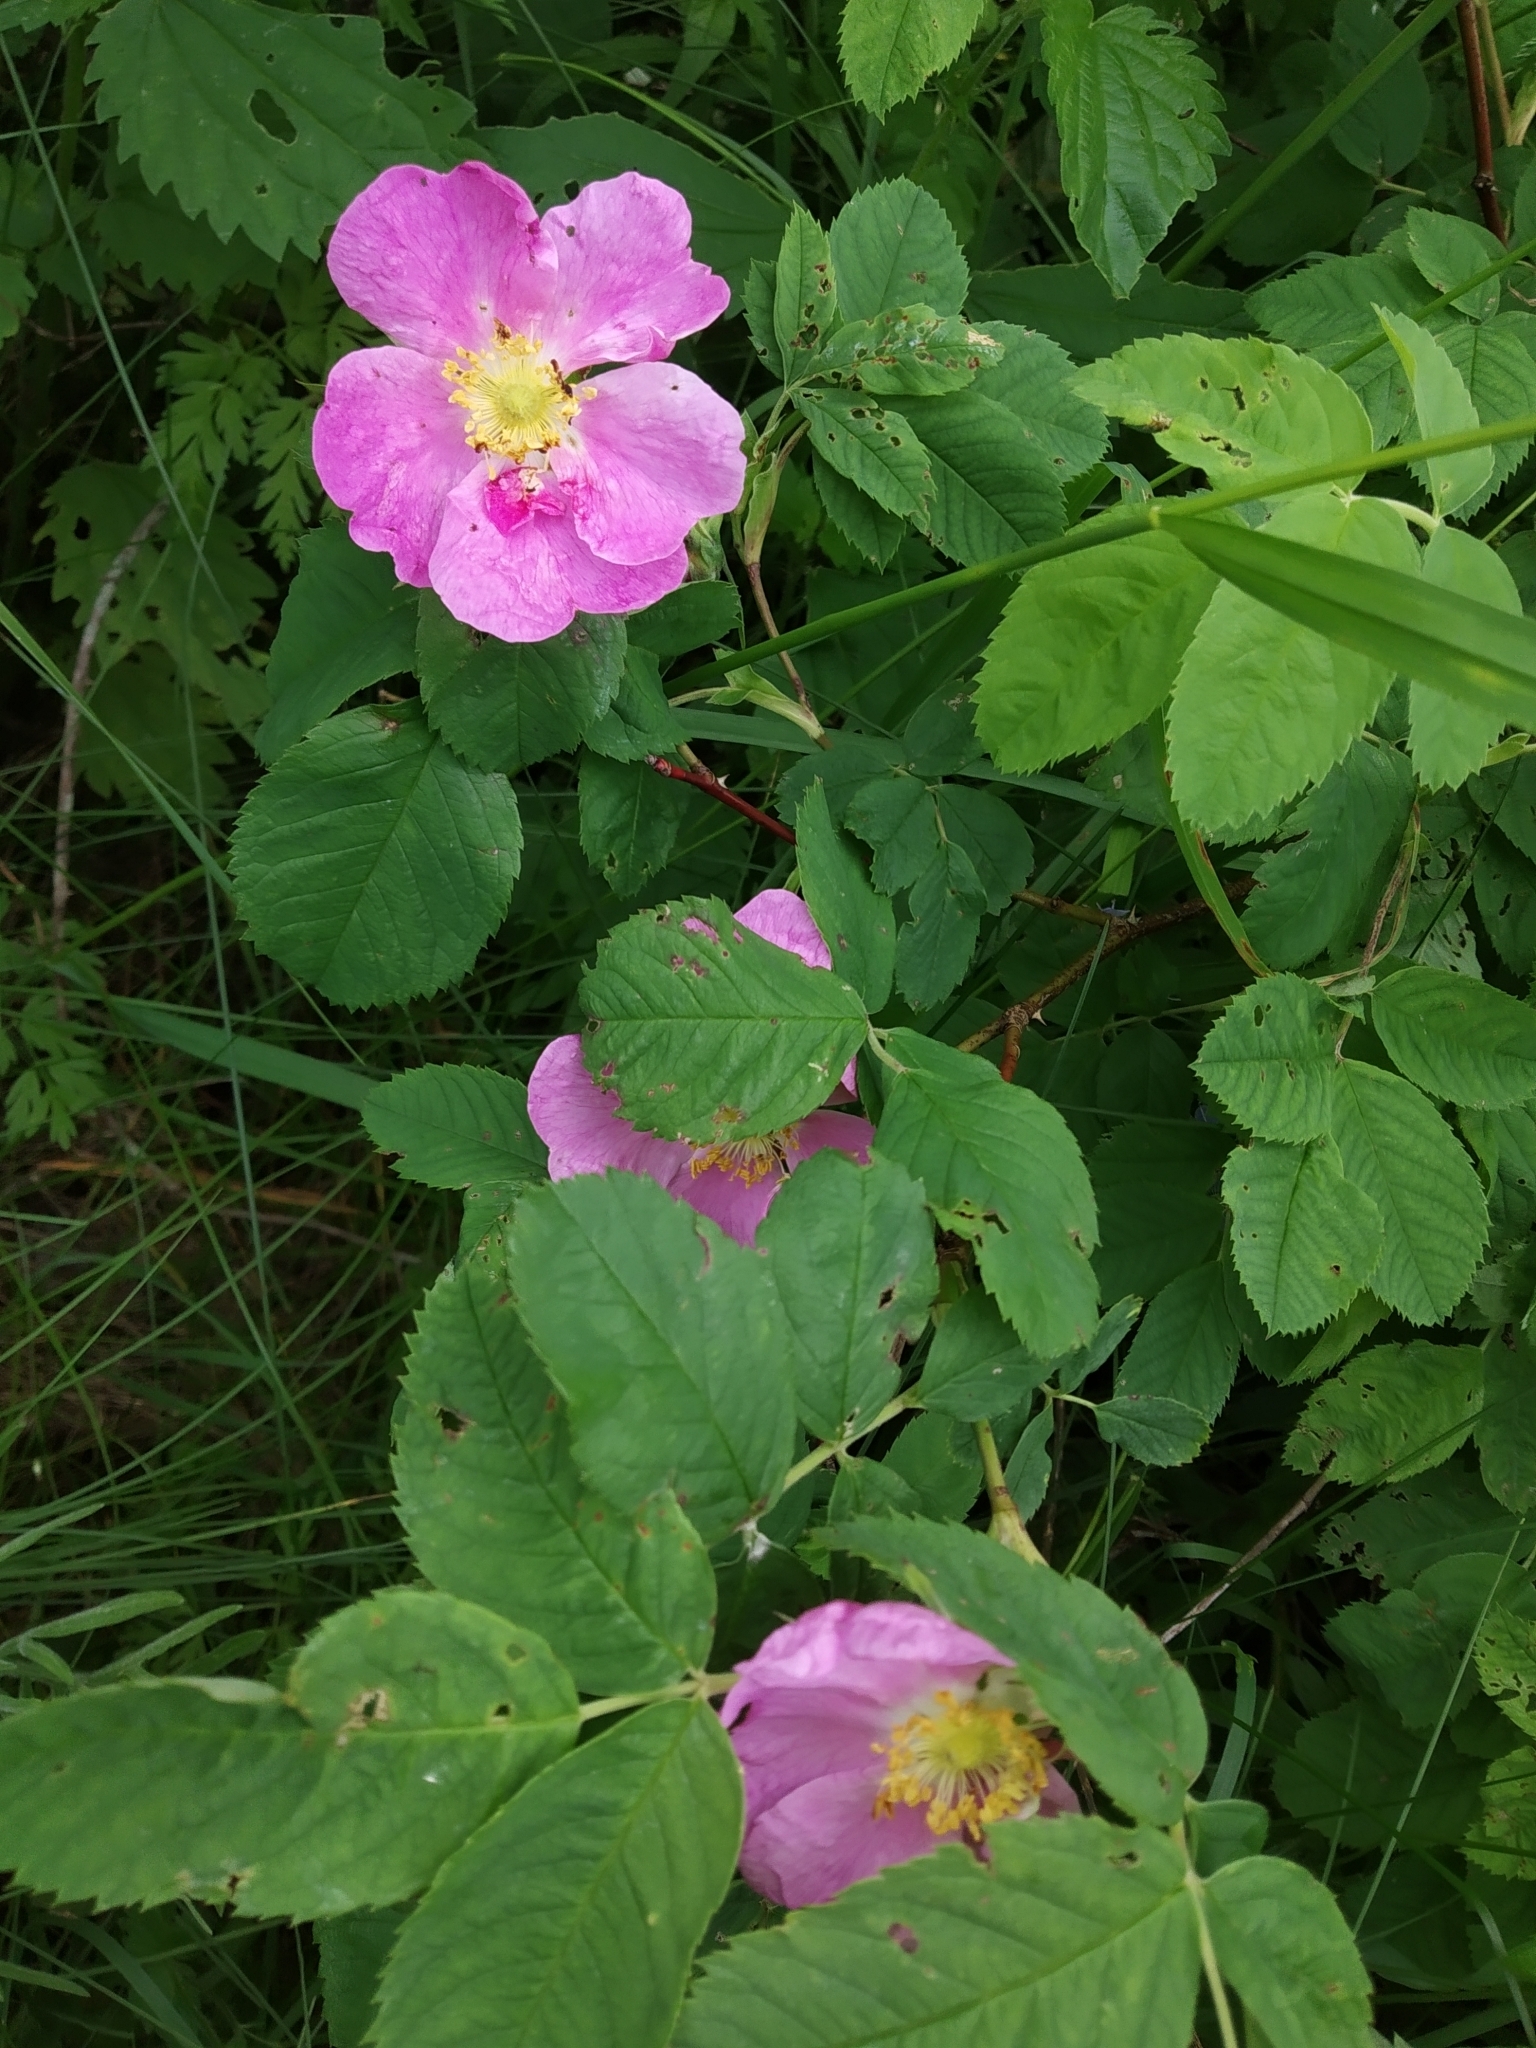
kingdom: Plantae
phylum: Tracheophyta
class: Magnoliopsida
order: Rosales
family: Rosaceae
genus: Rosa
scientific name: Rosa majalis
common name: Cinnamon rose
